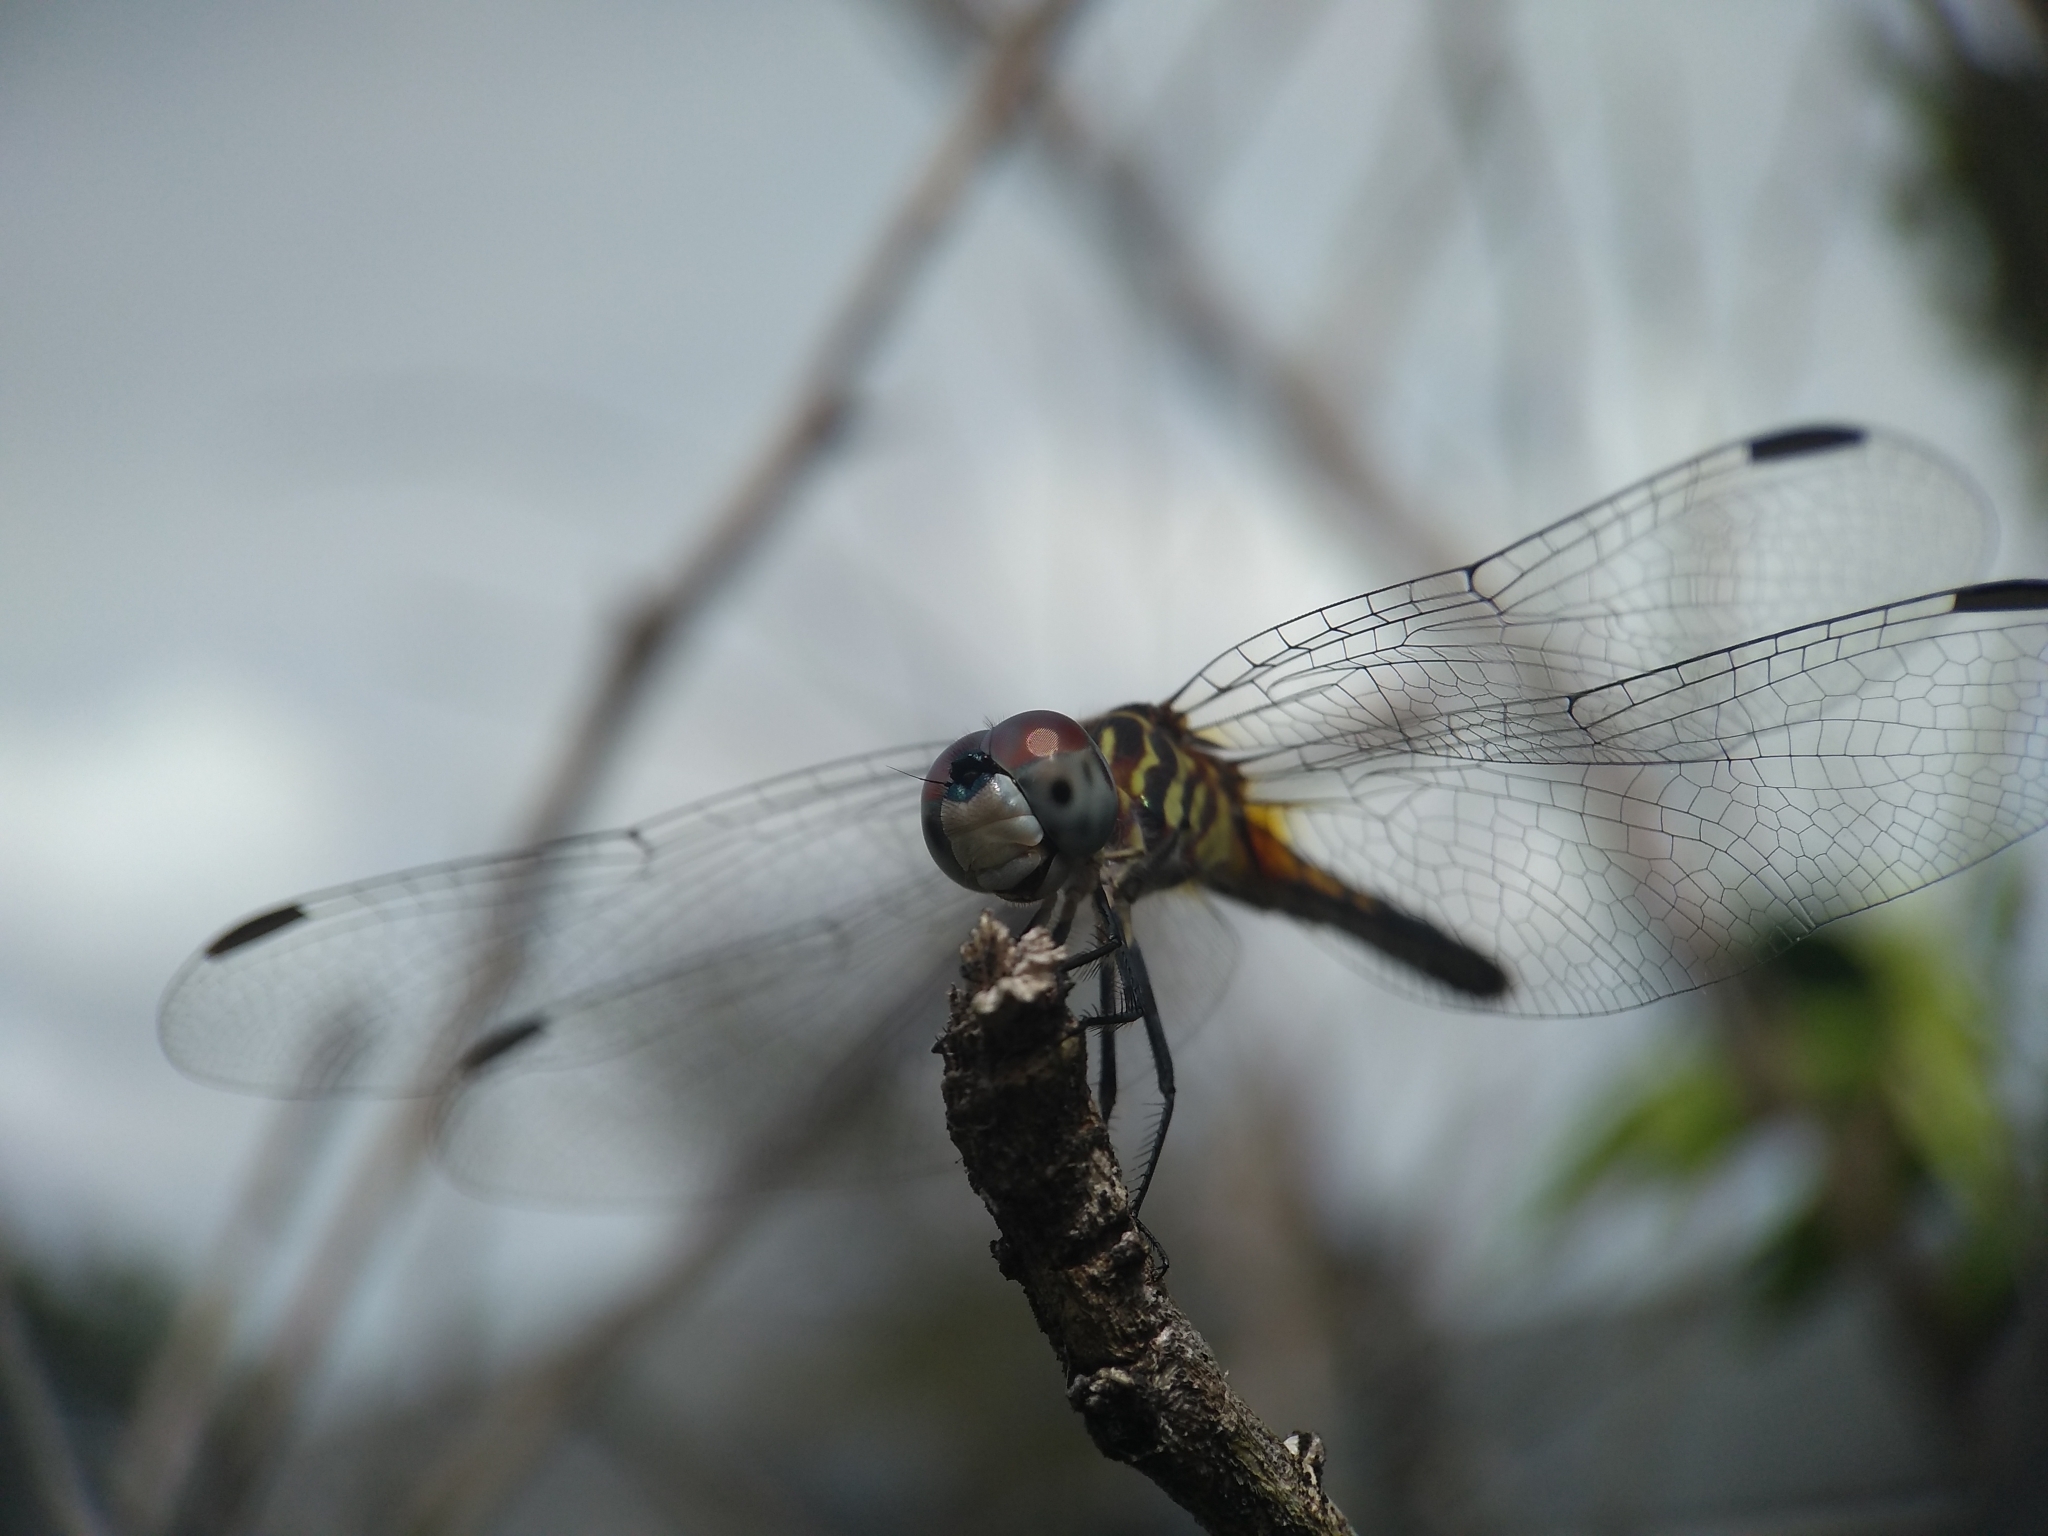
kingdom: Animalia
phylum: Arthropoda
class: Insecta
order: Odonata
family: Libellulidae
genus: Pachydiplax
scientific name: Pachydiplax longipennis
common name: Blue dasher
